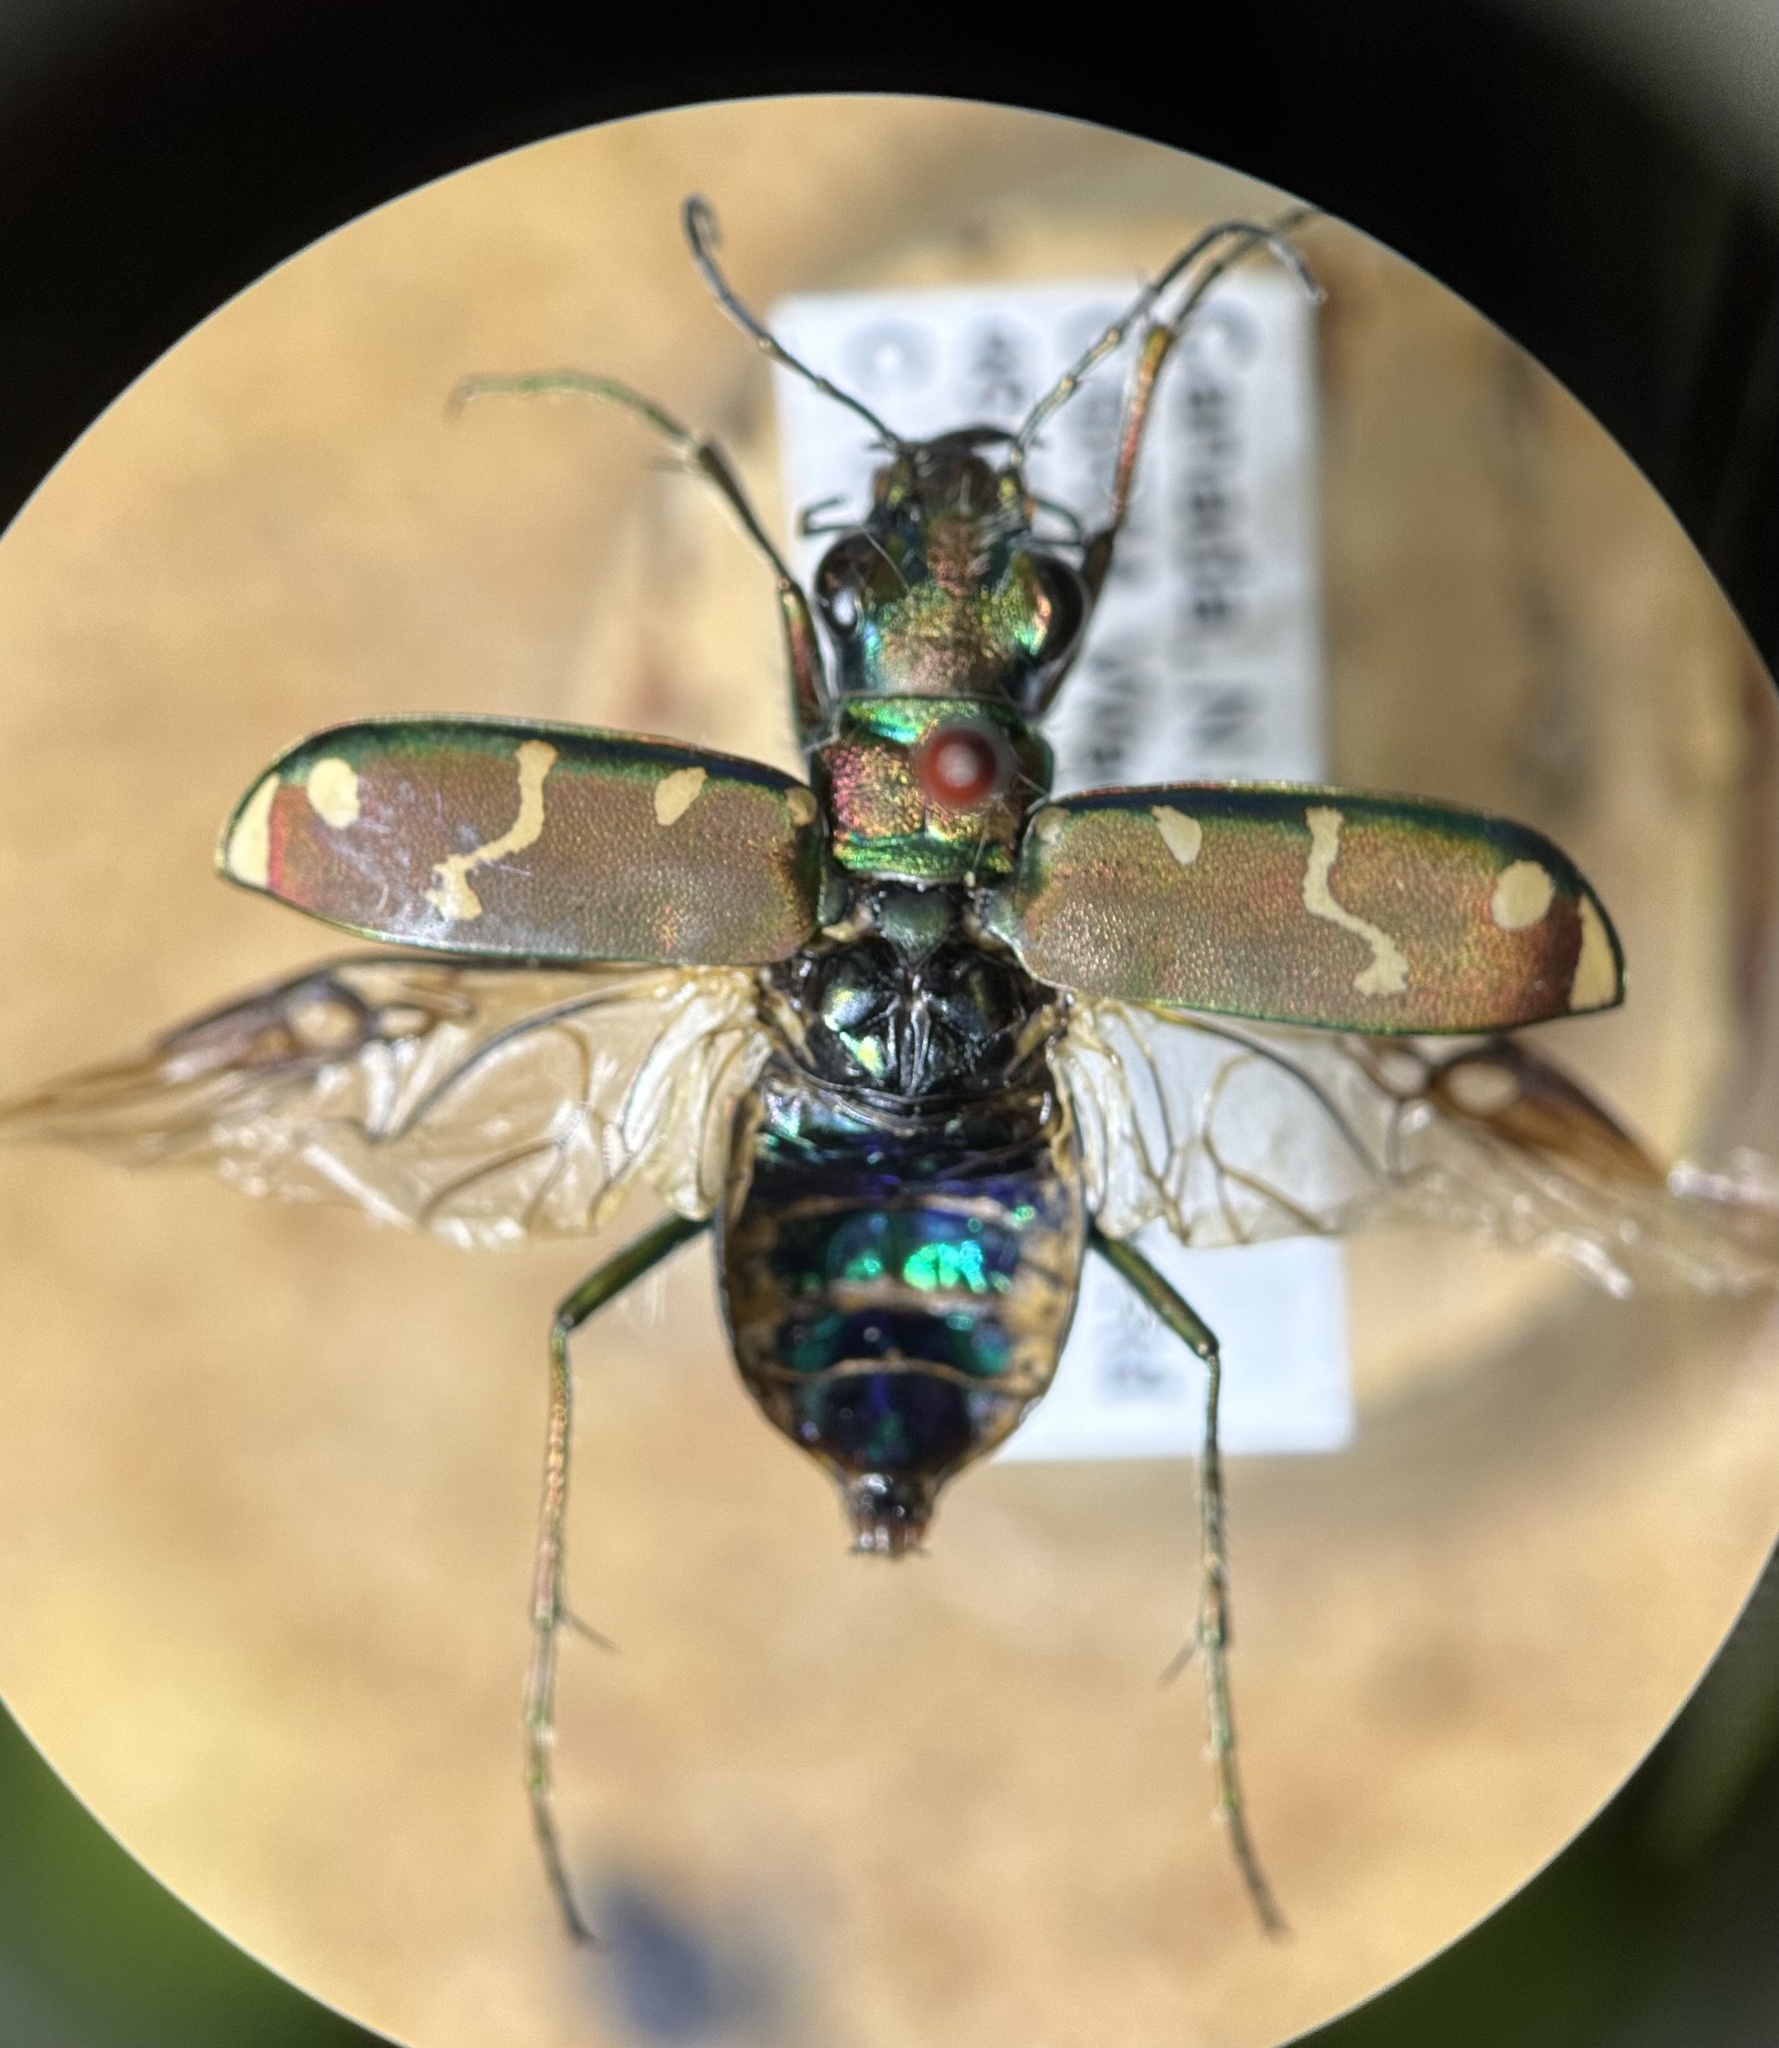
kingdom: Animalia
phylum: Arthropoda
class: Insecta
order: Coleoptera
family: Carabidae
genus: Cicindela
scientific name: Cicindela limbalis
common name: Common claybank tiger beetle
